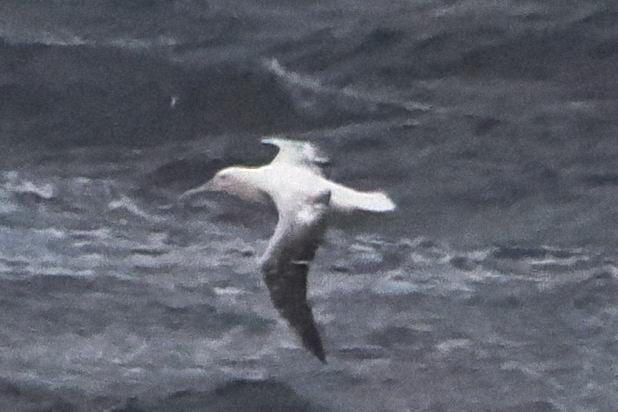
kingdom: Animalia
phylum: Chordata
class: Aves
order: Procellariiformes
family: Diomedeidae
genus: Diomedea
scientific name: Diomedea epomophora
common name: Southern royal albatross
